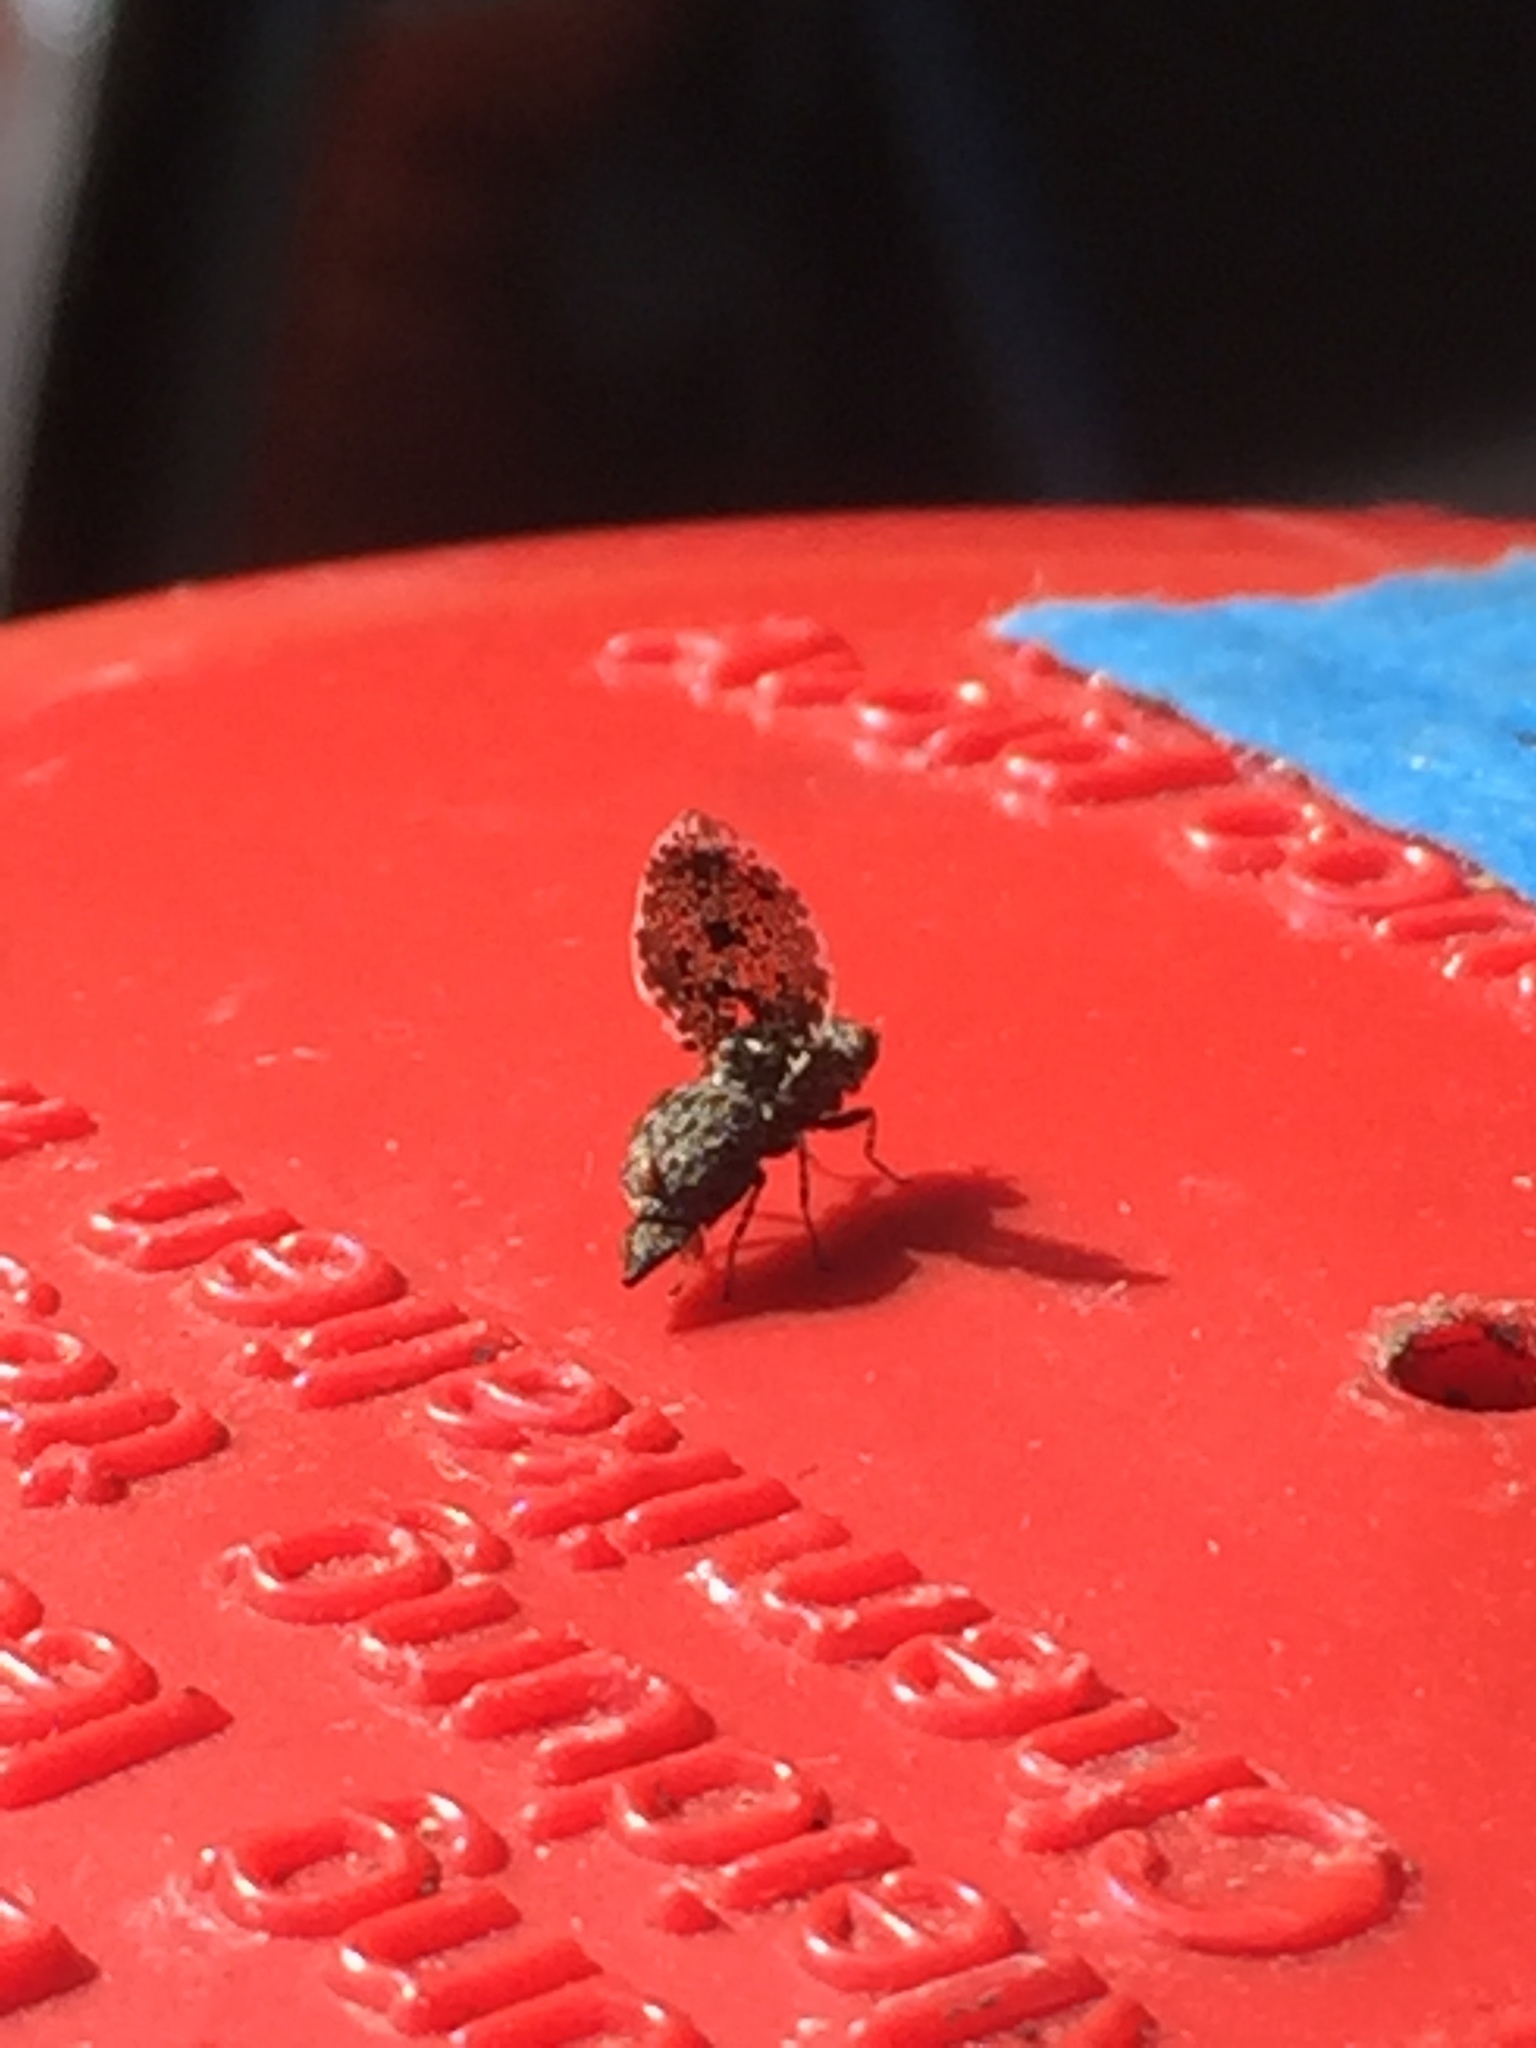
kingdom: Animalia
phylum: Arthropoda
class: Insecta
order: Diptera
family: Ulidiidae
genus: Callopistromyia
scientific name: Callopistromyia annulipes
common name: Peacock fly
